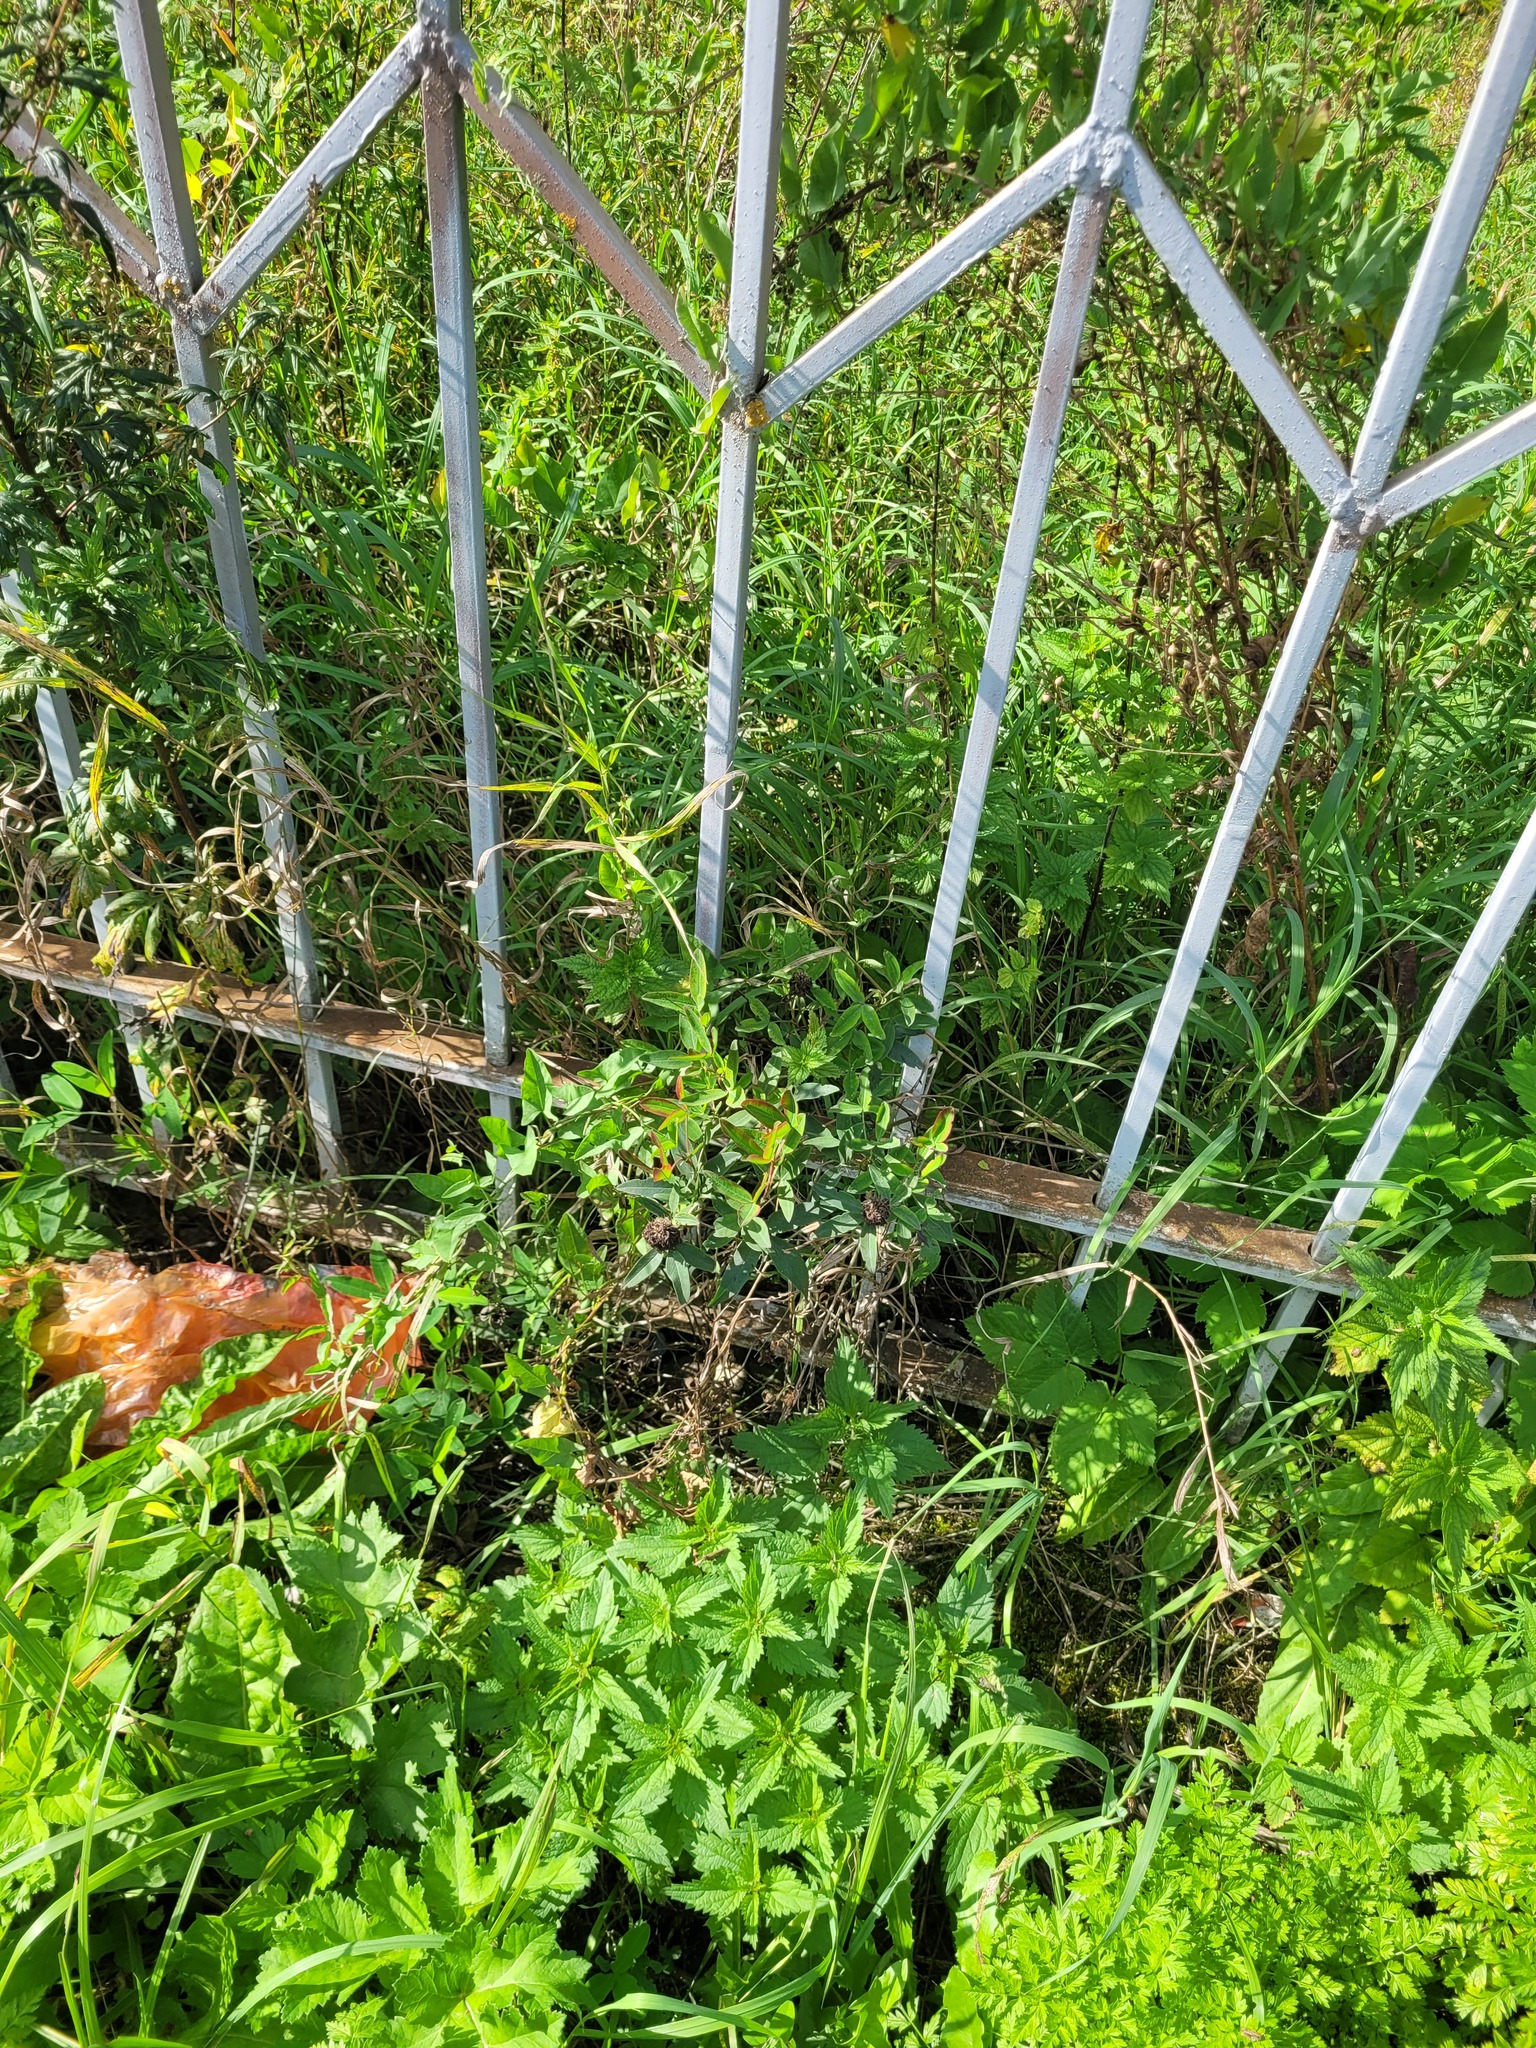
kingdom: Plantae
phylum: Tracheophyta
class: Magnoliopsida
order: Fabales
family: Fabaceae
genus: Trifolium
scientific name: Trifolium medium
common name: Zigzag clover
